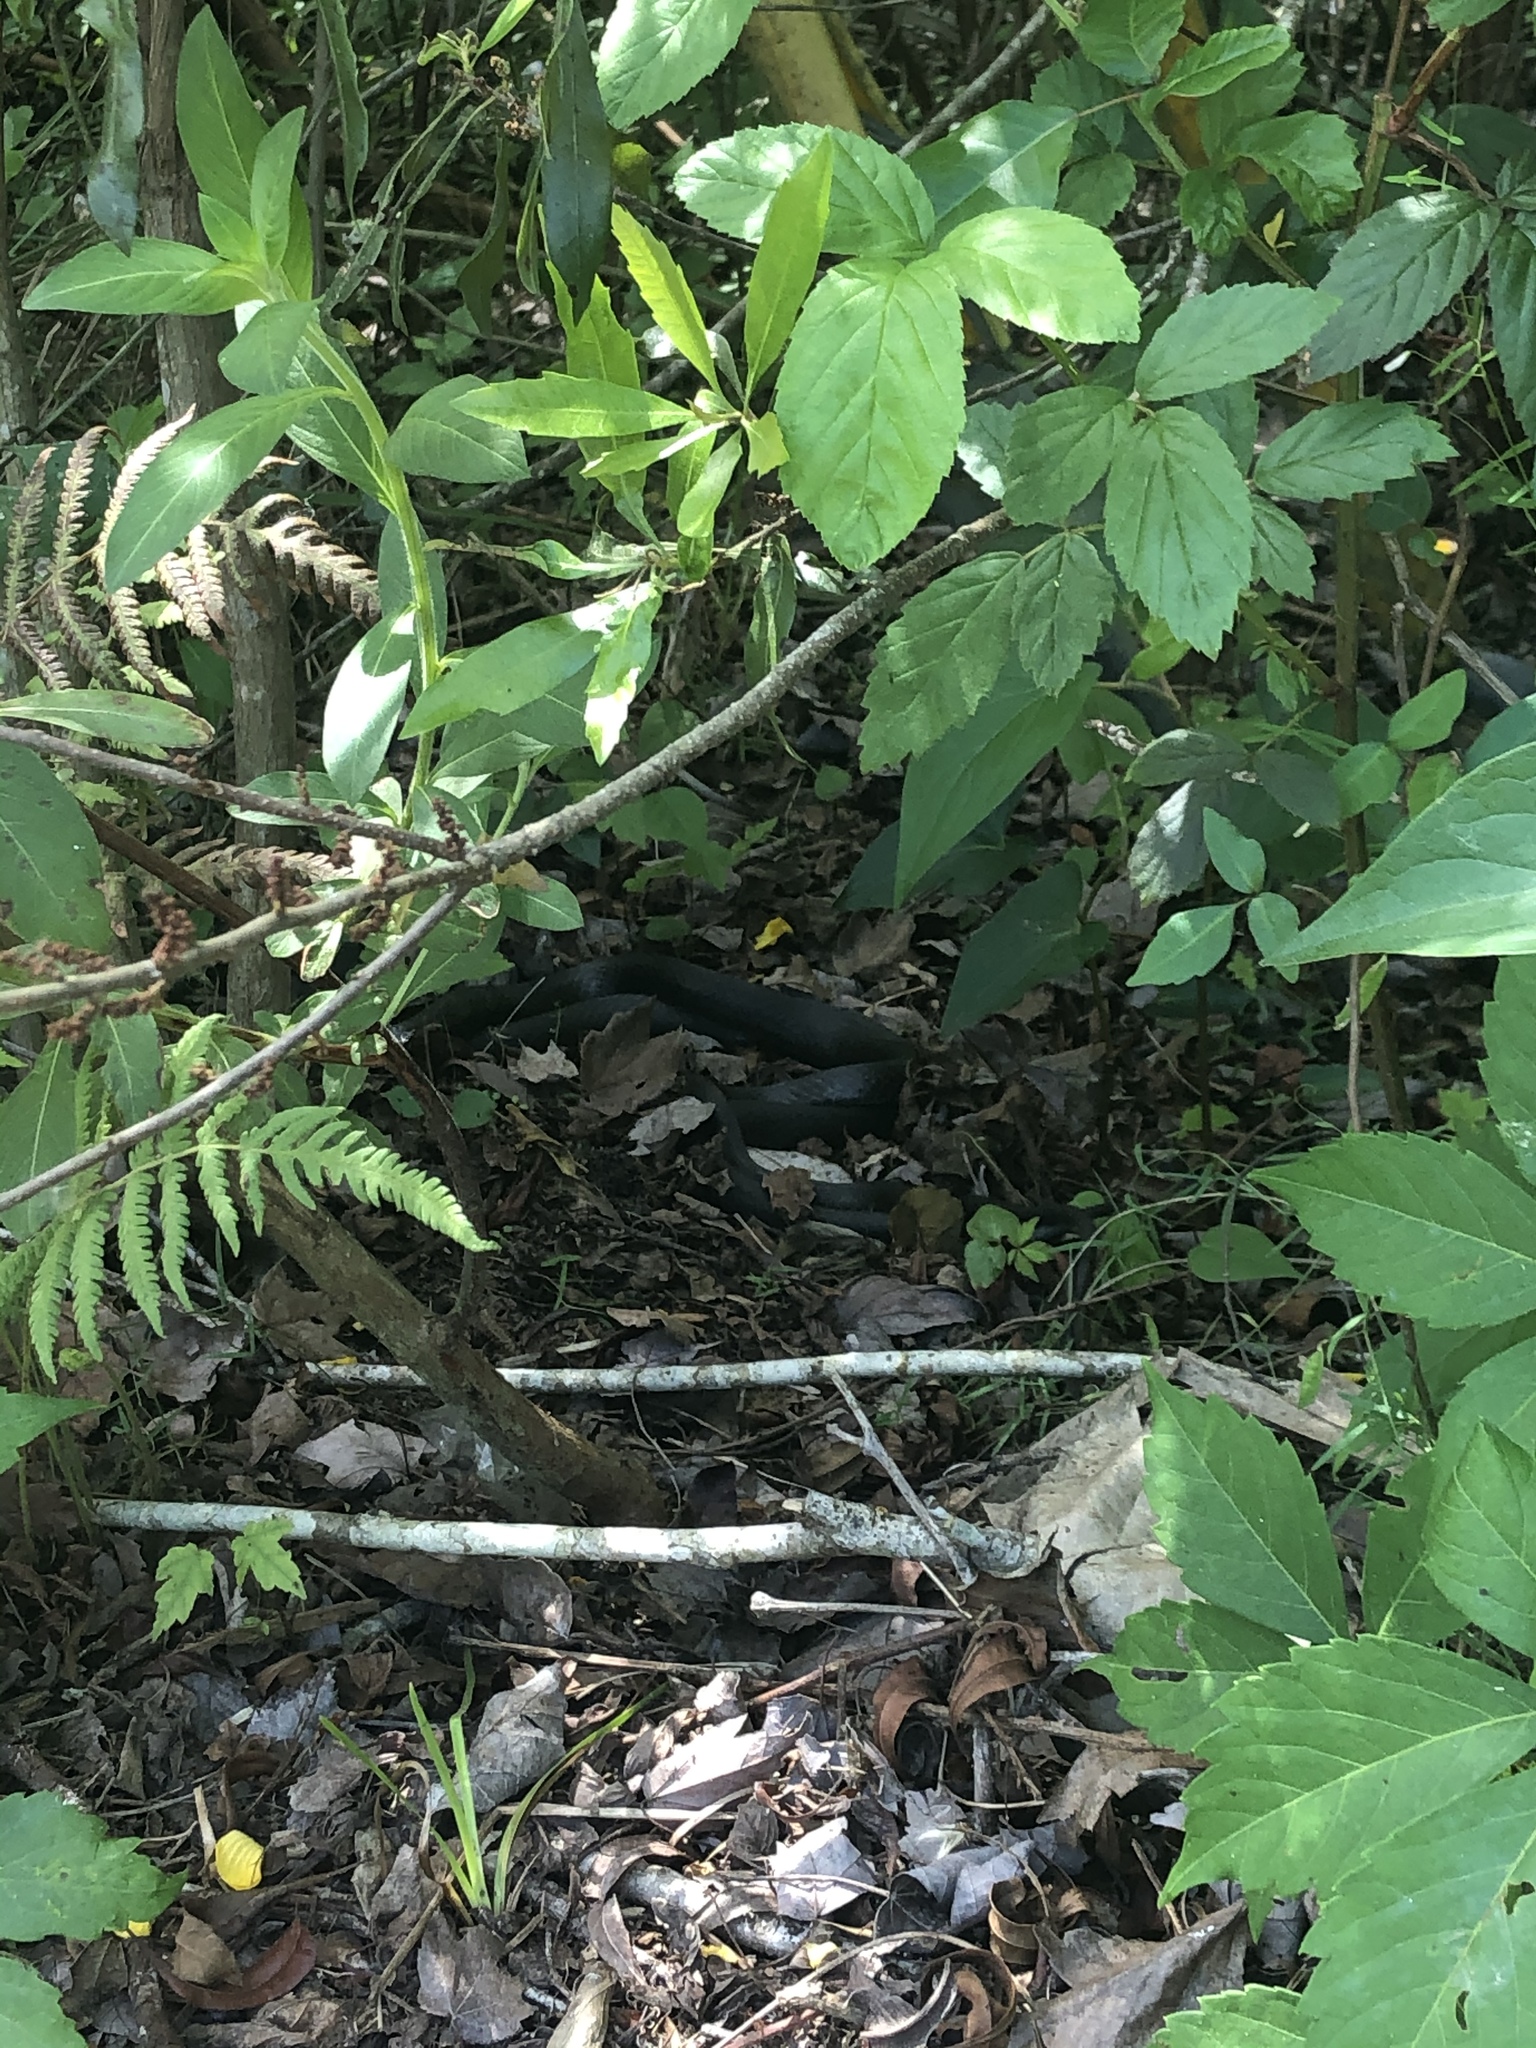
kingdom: Animalia
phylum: Chordata
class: Squamata
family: Colubridae
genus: Coluber
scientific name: Coluber constrictor
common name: Eastern racer
